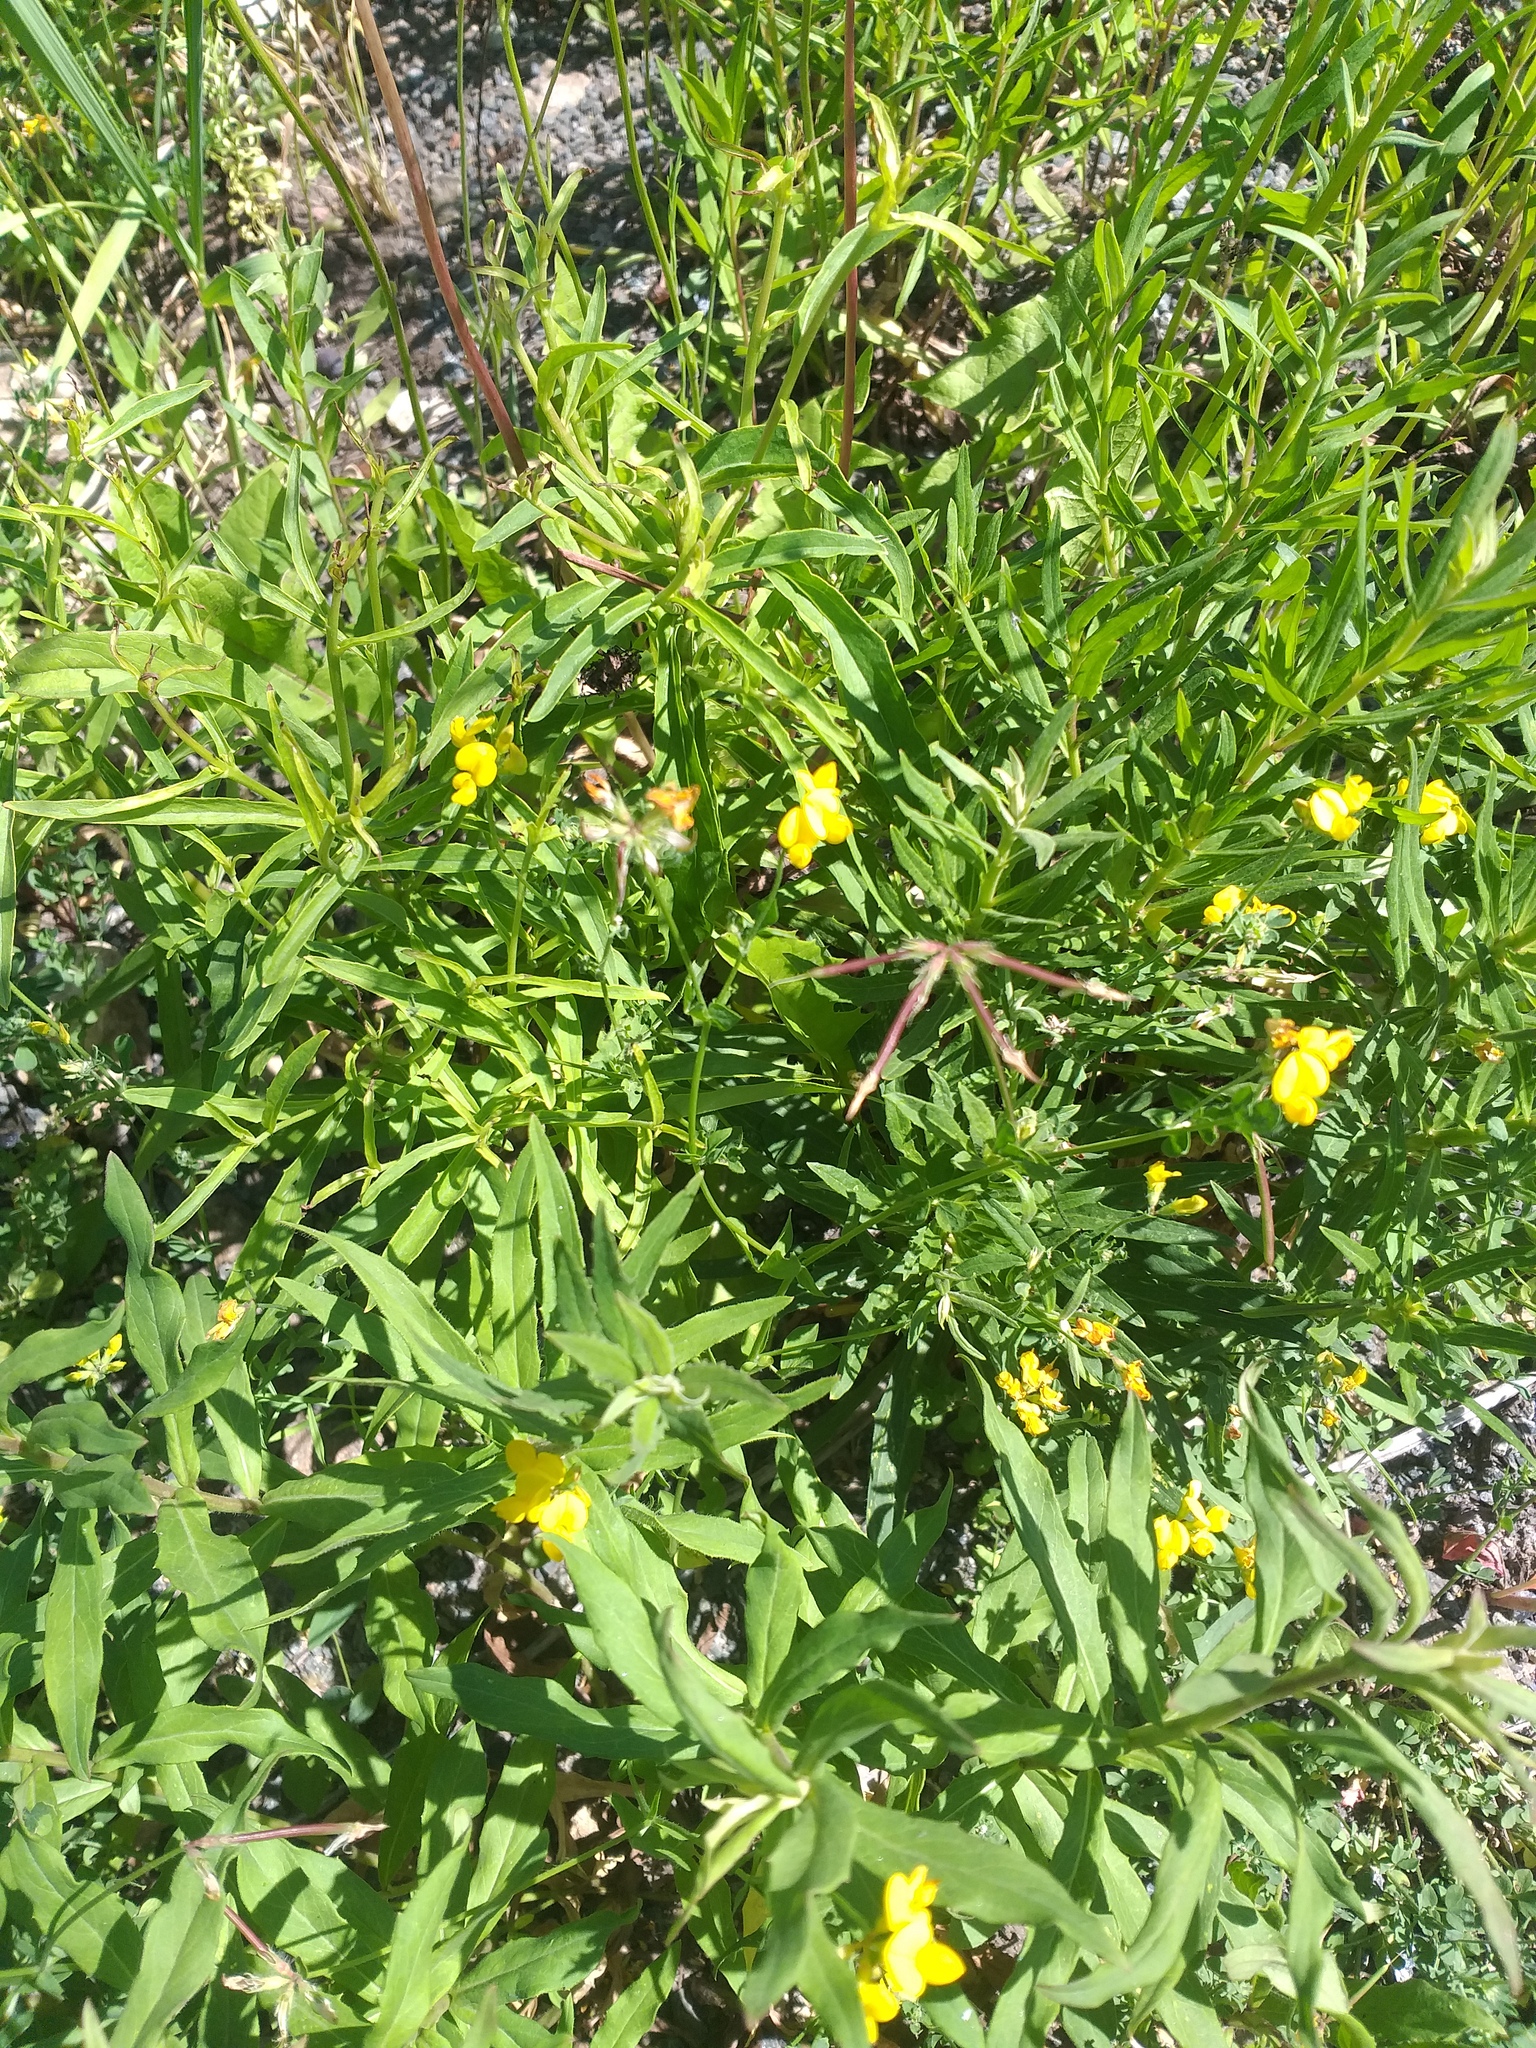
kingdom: Plantae
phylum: Tracheophyta
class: Magnoliopsida
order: Fabales
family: Fabaceae
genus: Lotus
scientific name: Lotus corniculatus
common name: Common bird's-foot-trefoil
